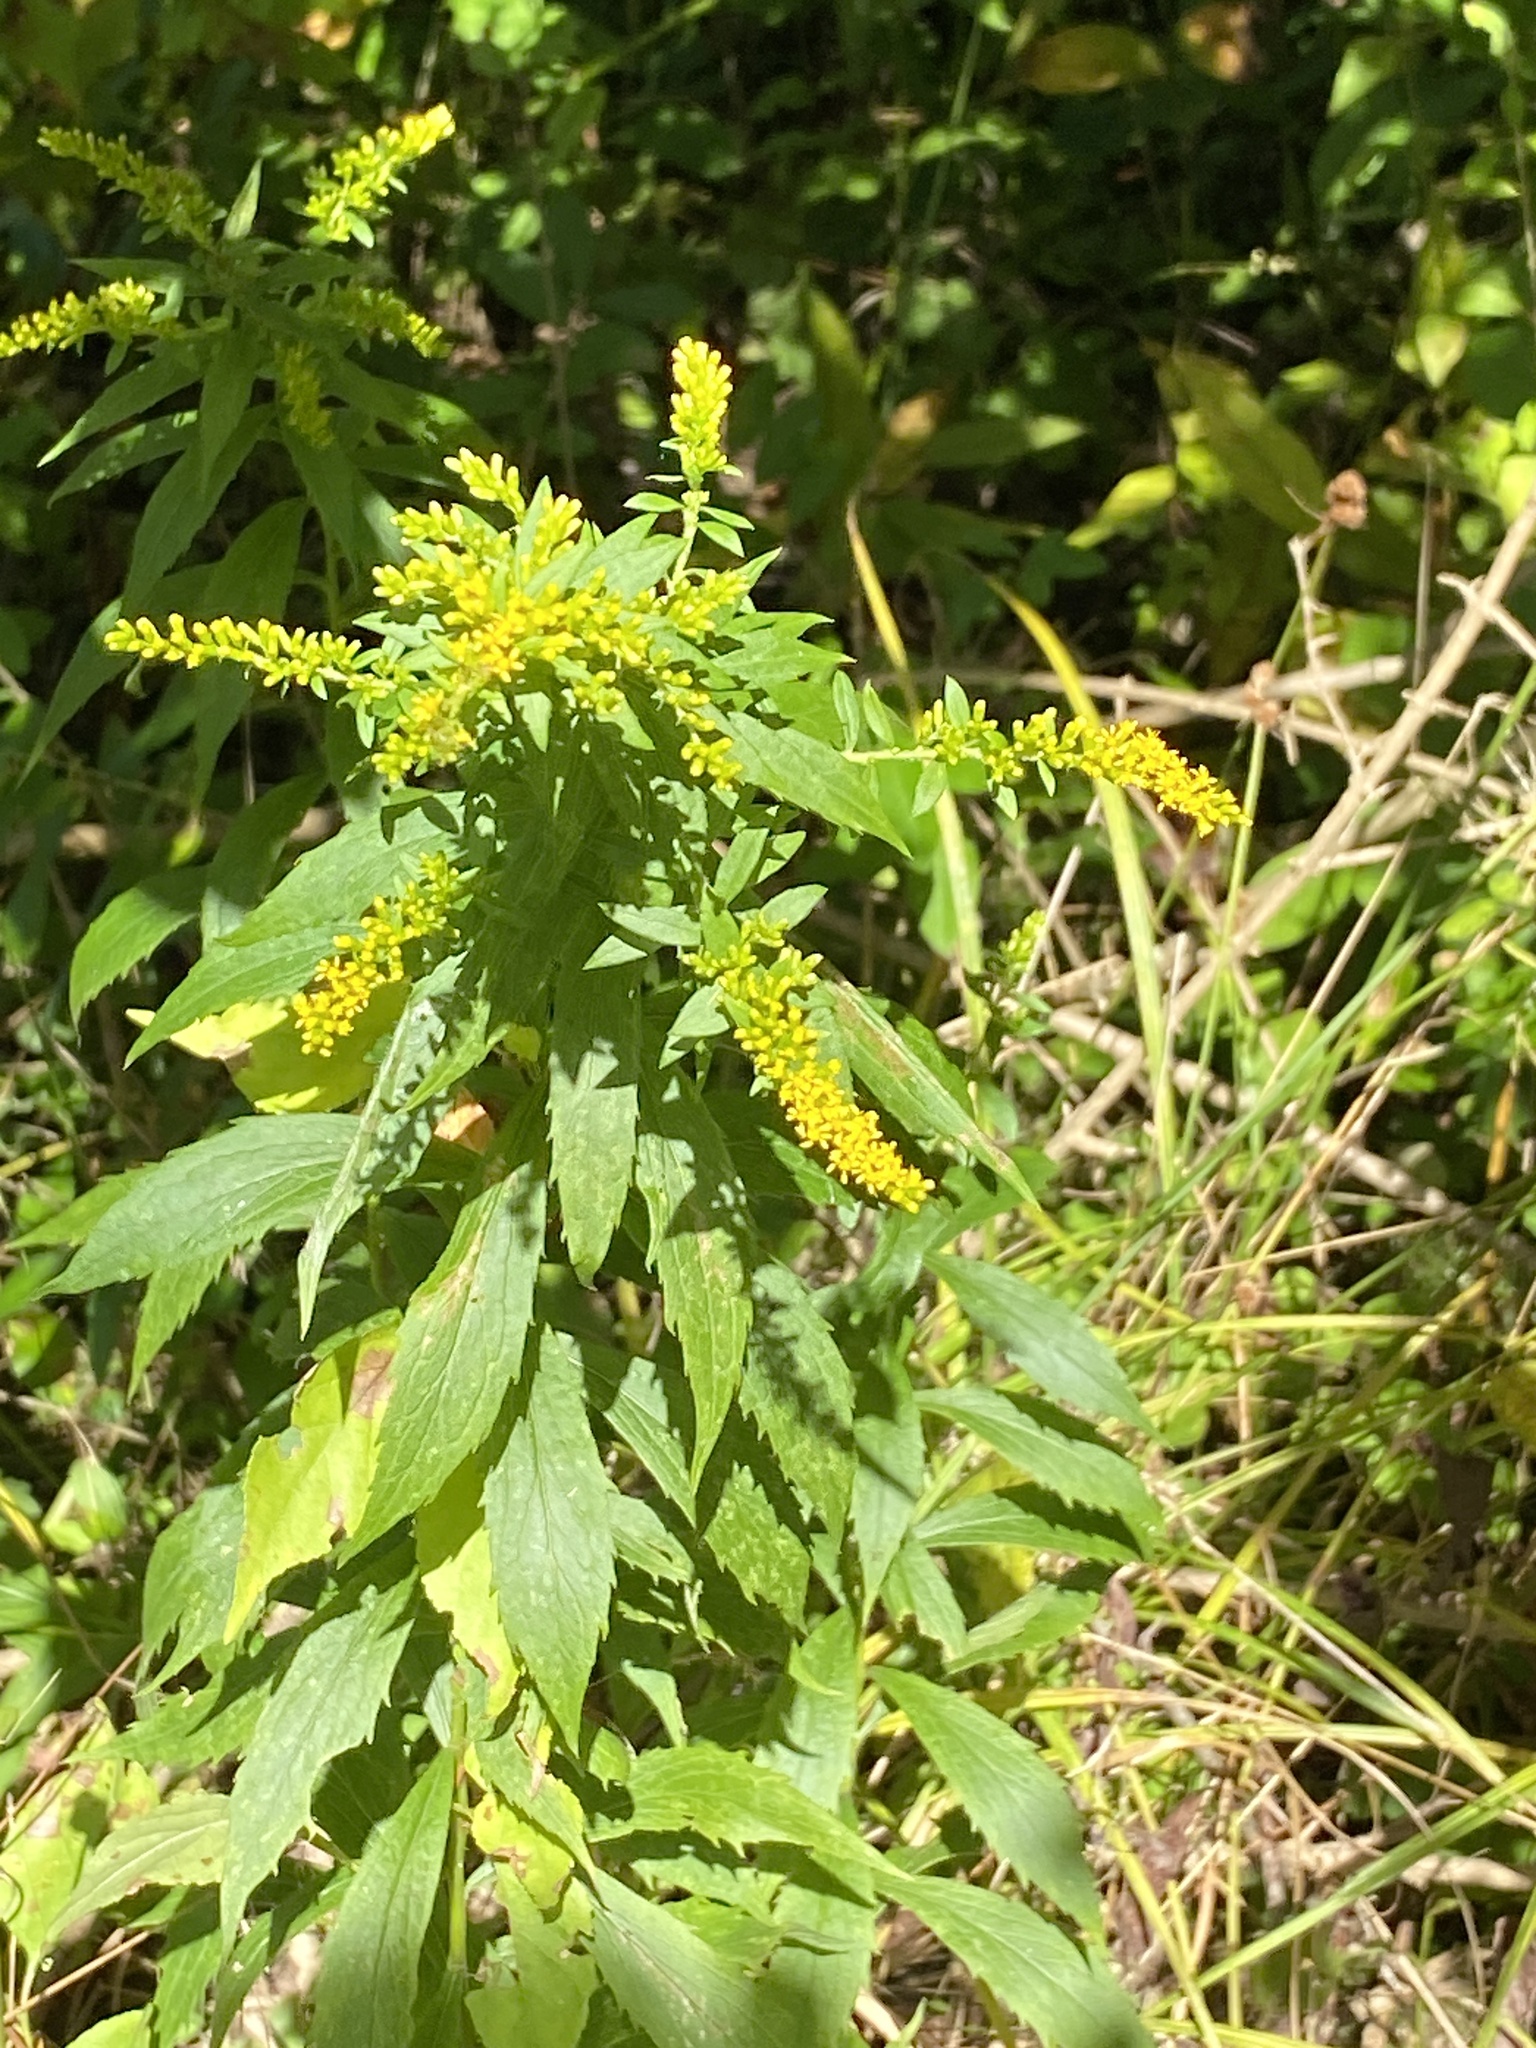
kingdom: Plantae
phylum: Tracheophyta
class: Magnoliopsida
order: Asterales
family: Asteraceae
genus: Solidago
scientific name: Solidago rugosa
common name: Rough-stemmed goldenrod
